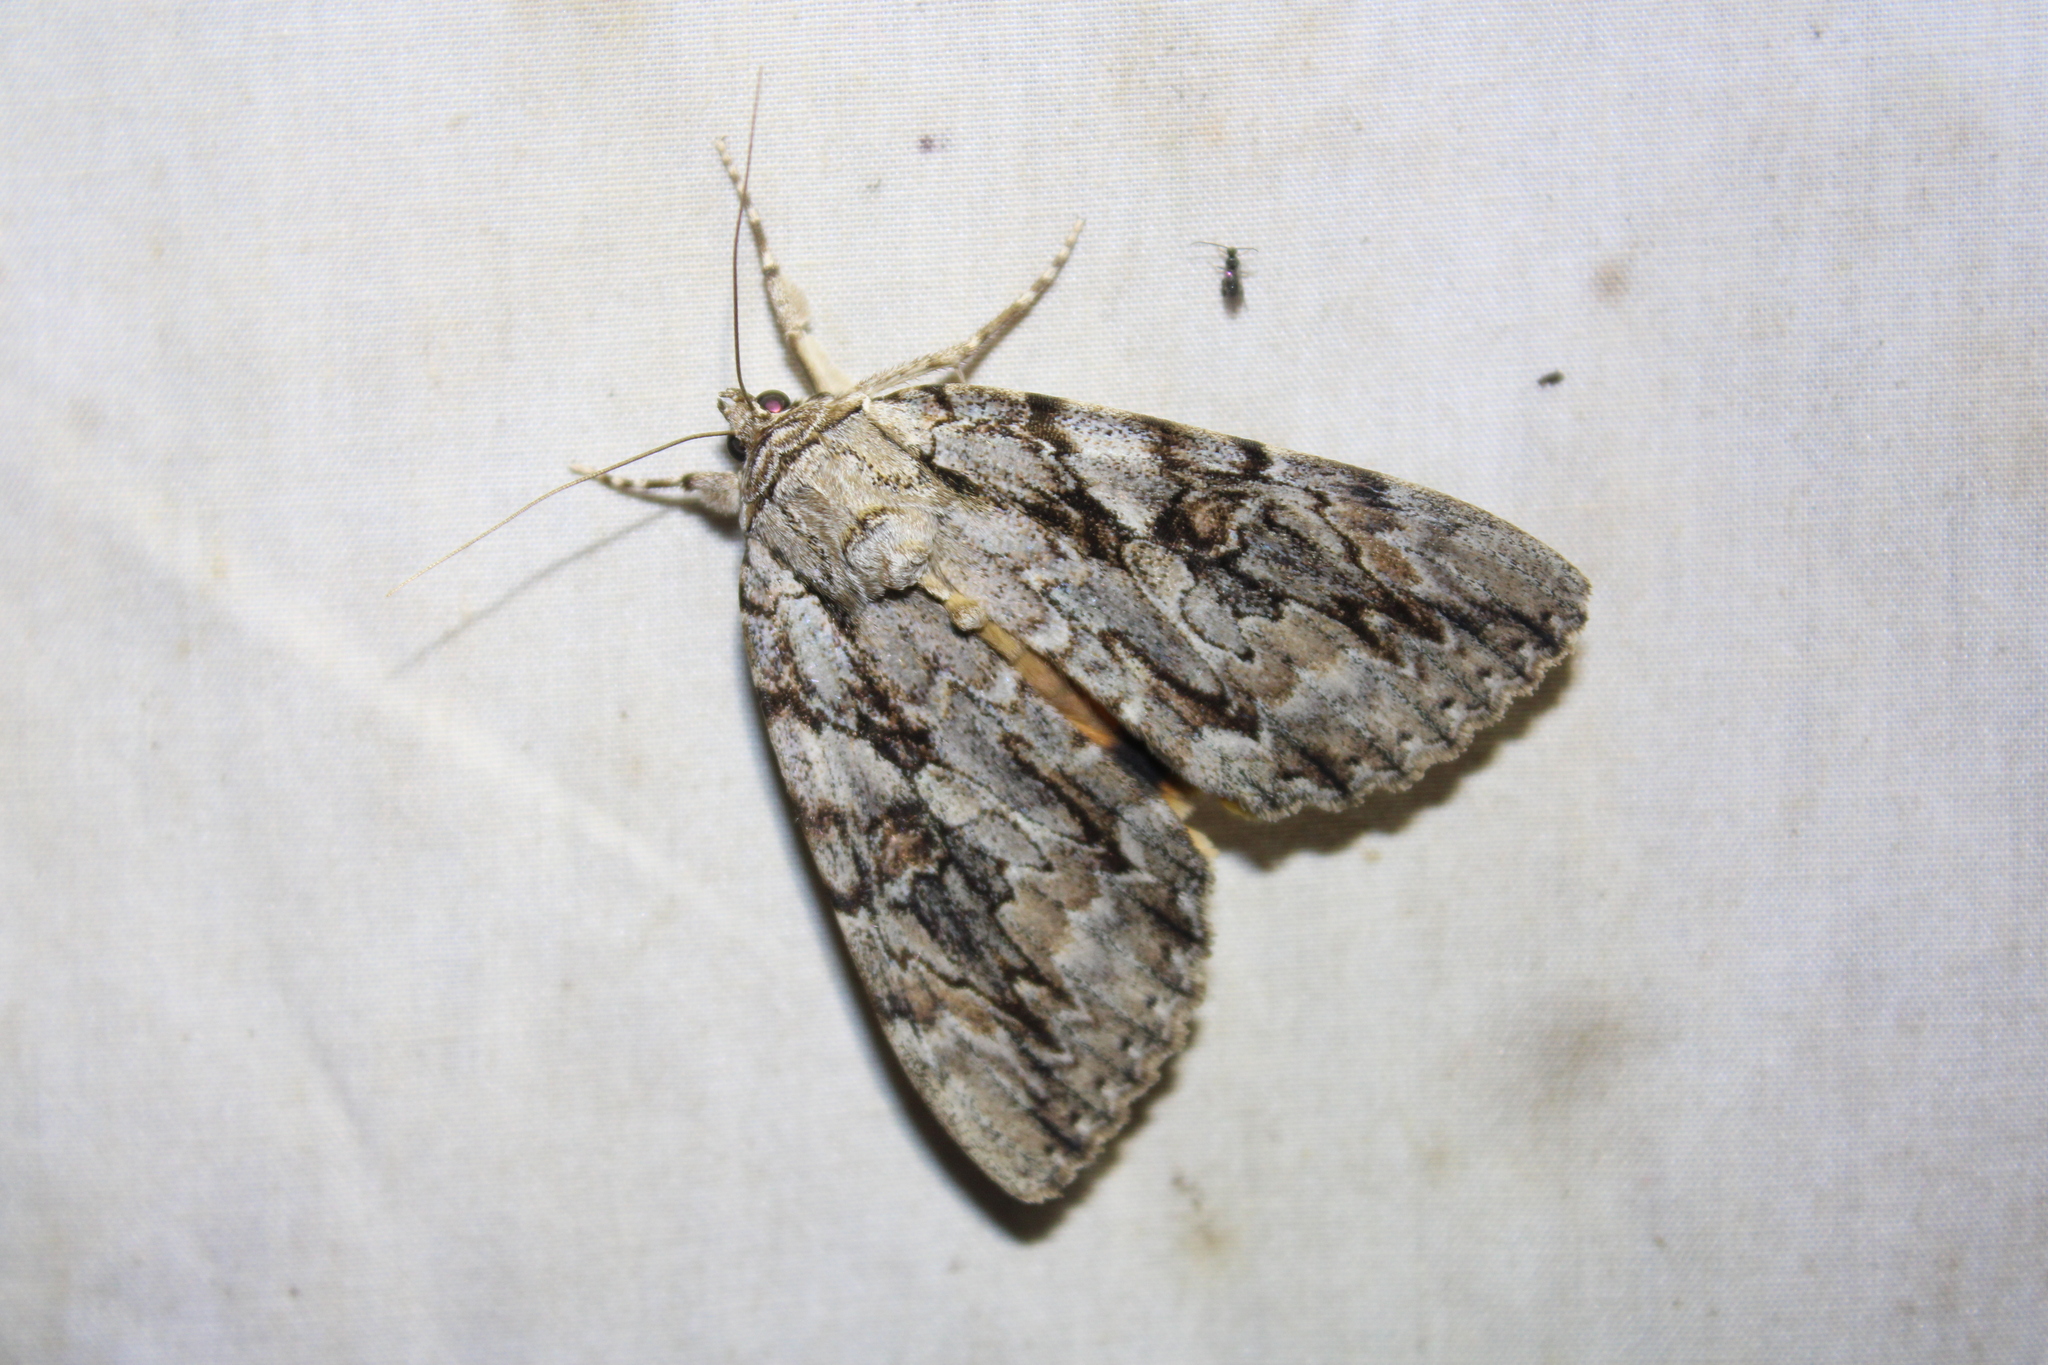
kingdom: Animalia
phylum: Arthropoda
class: Insecta
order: Lepidoptera
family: Erebidae
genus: Catocala
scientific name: Catocala subnata
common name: Youthful underwing
